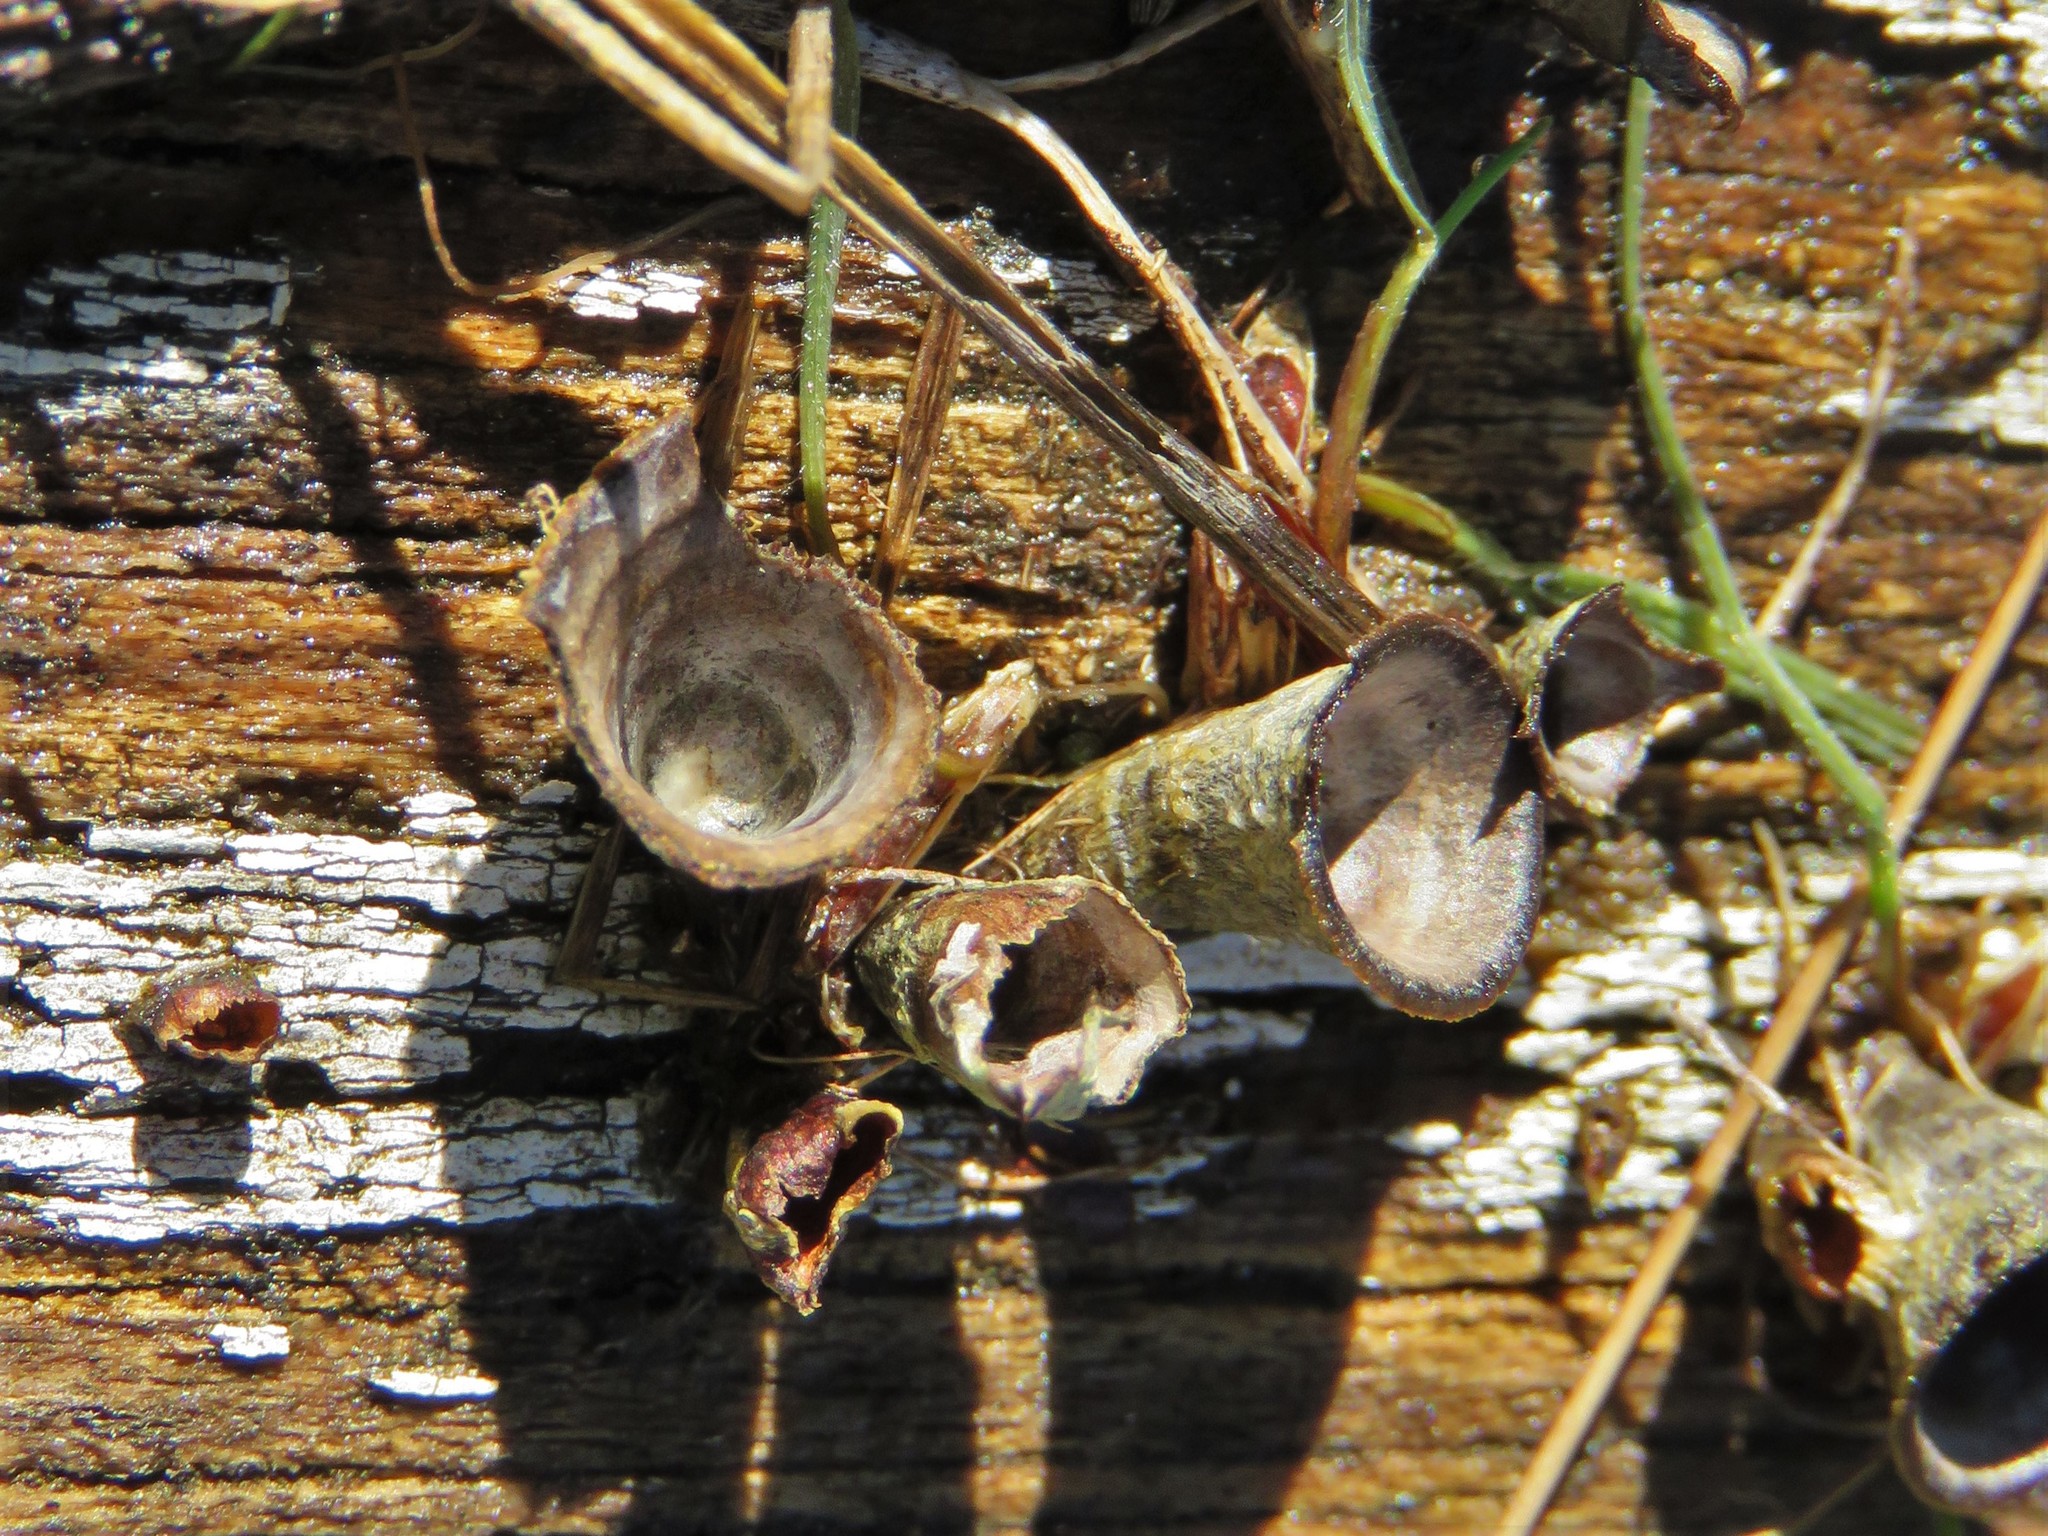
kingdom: Fungi
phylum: Basidiomycota
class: Agaricomycetes
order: Agaricales
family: Agaricaceae
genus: Cyathus
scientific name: Cyathus stercoreus
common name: Dung bird's nest
